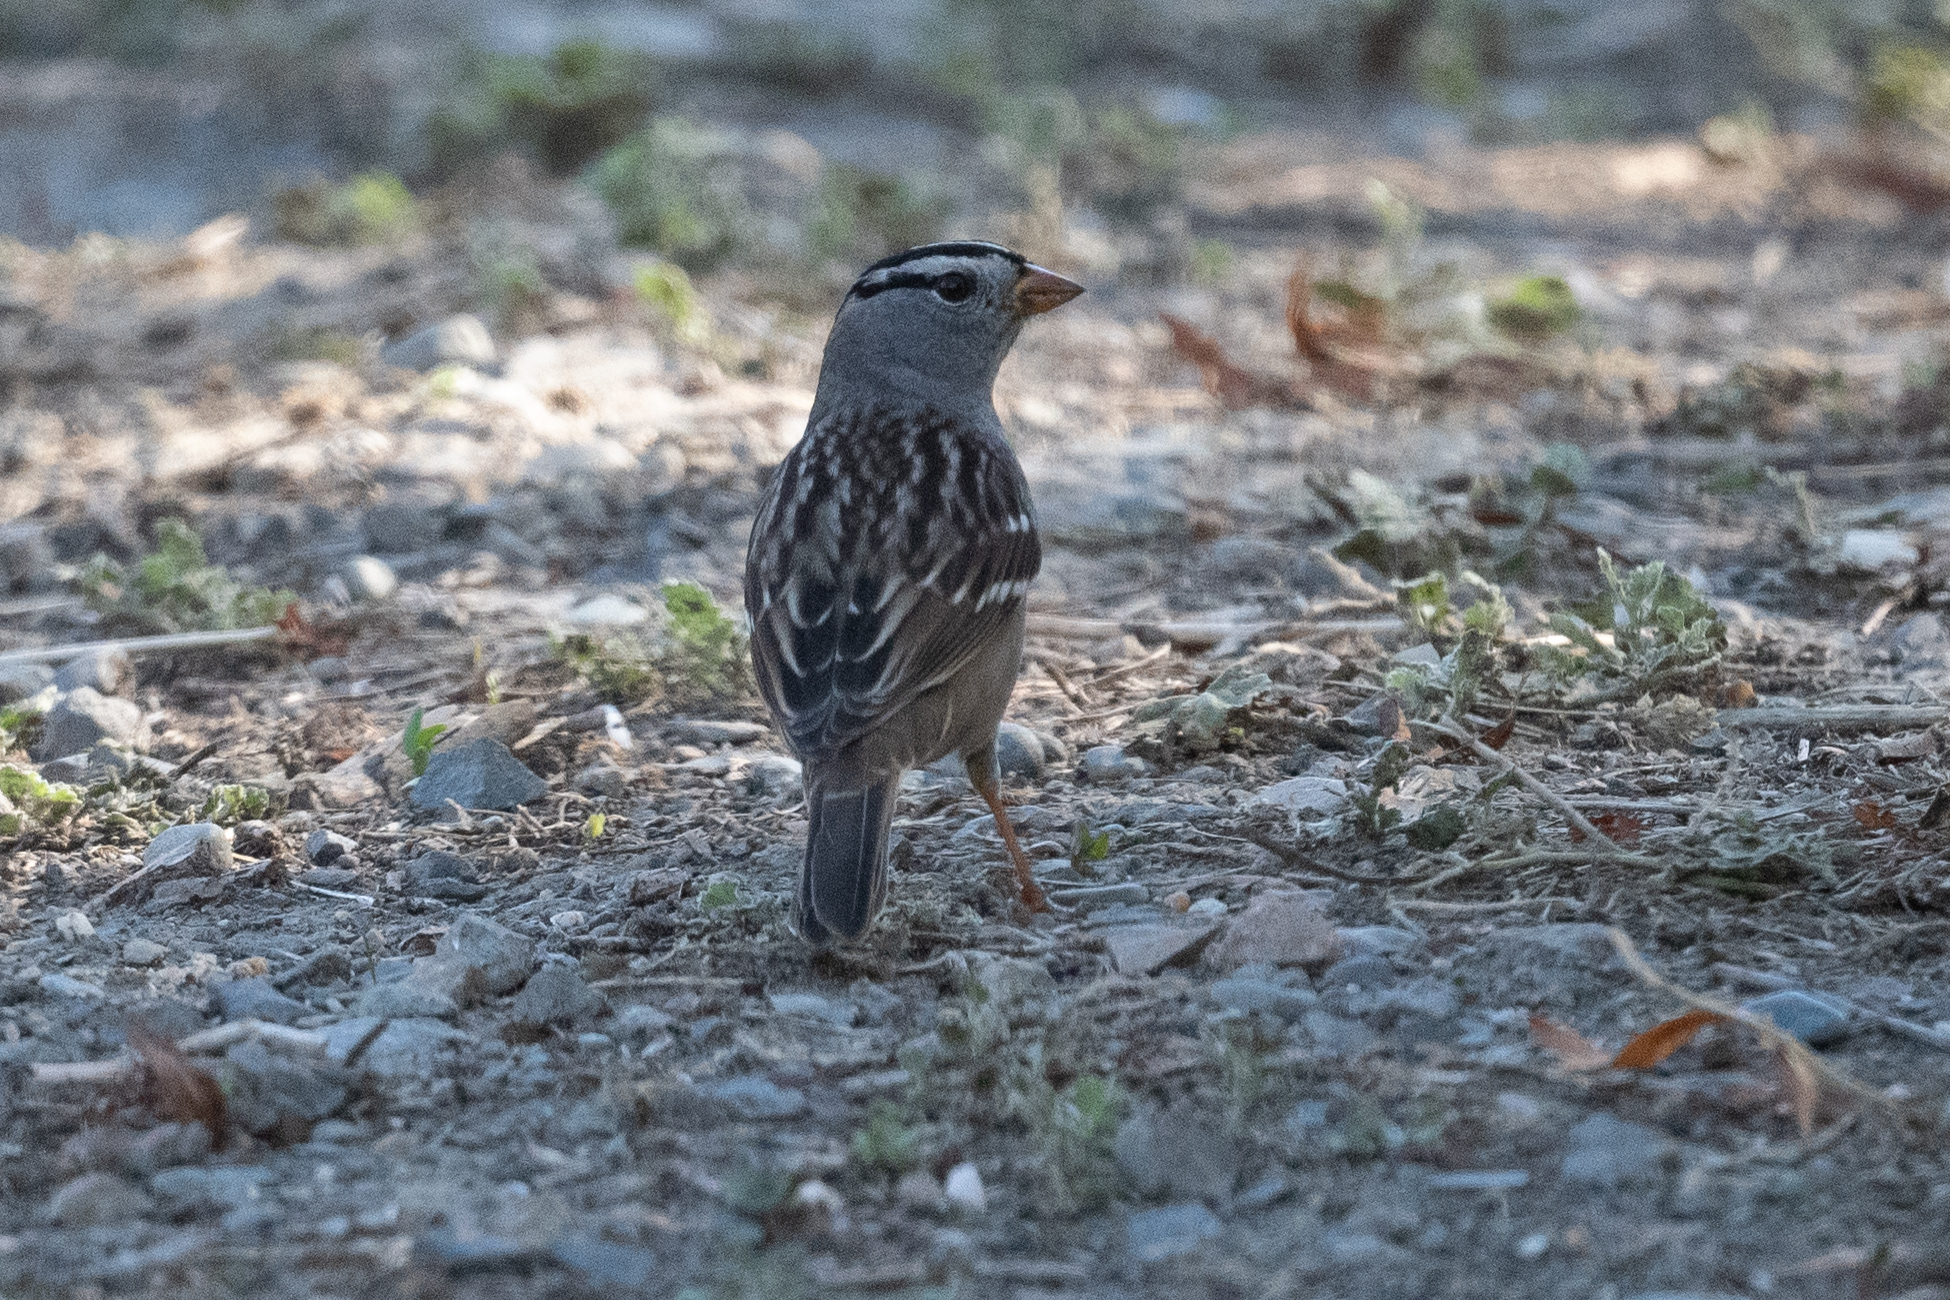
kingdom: Animalia
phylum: Chordata
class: Aves
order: Passeriformes
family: Passerellidae
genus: Zonotrichia
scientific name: Zonotrichia leucophrys
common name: White-crowned sparrow
